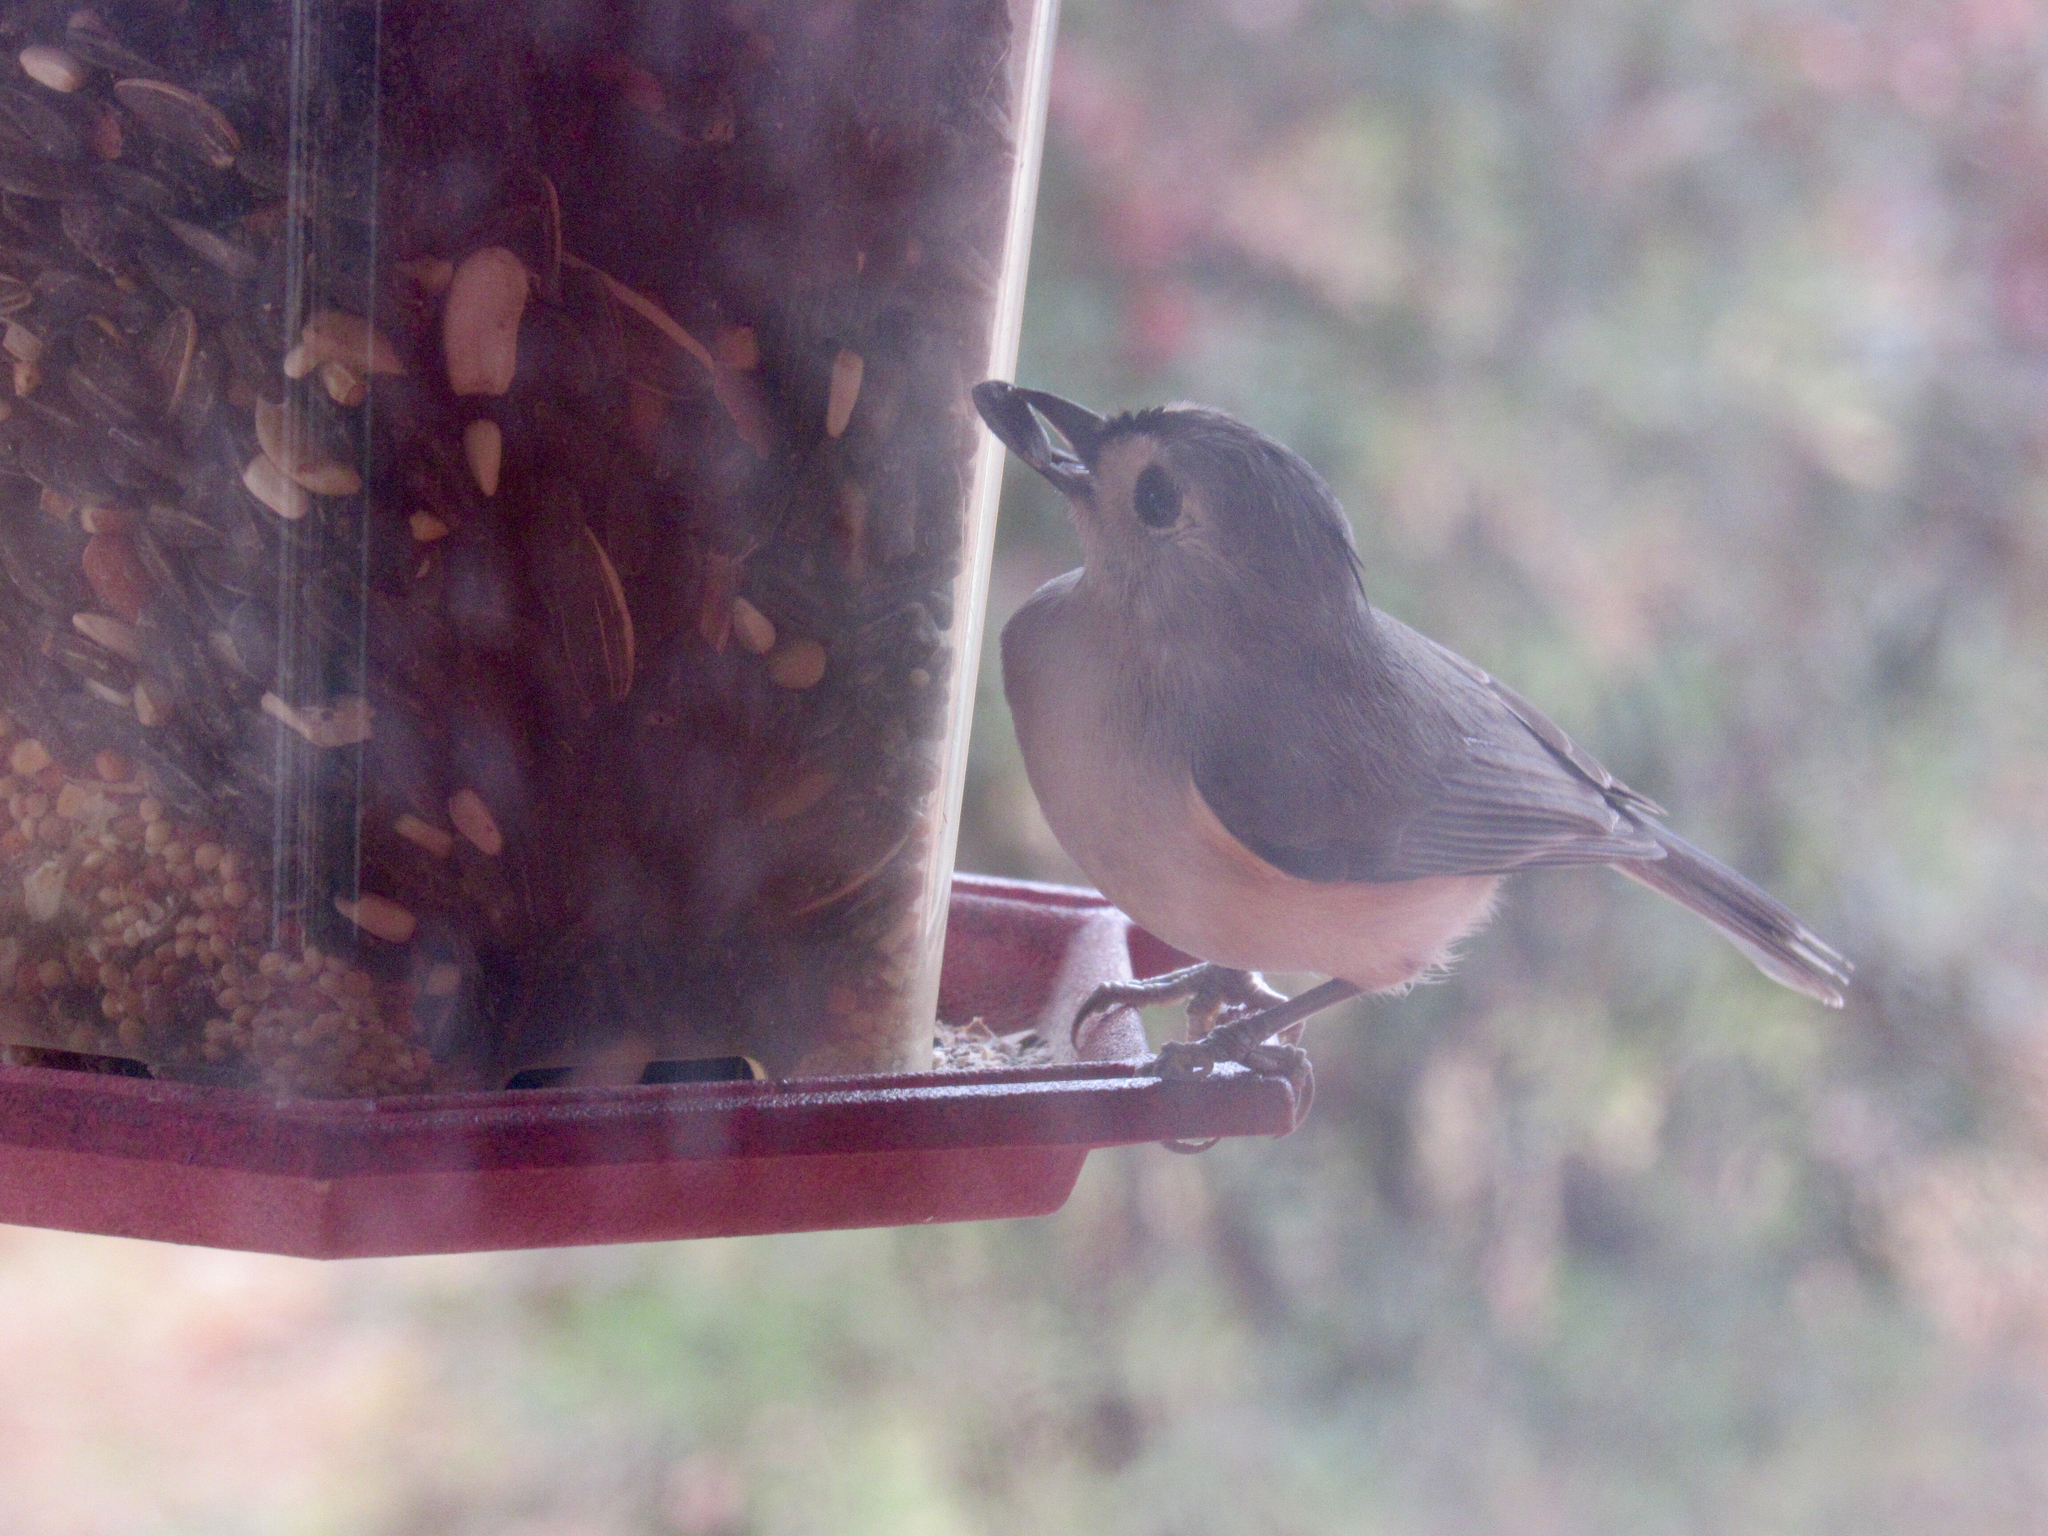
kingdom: Animalia
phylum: Chordata
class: Aves
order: Passeriformes
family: Paridae
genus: Baeolophus
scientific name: Baeolophus bicolor
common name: Tufted titmouse
